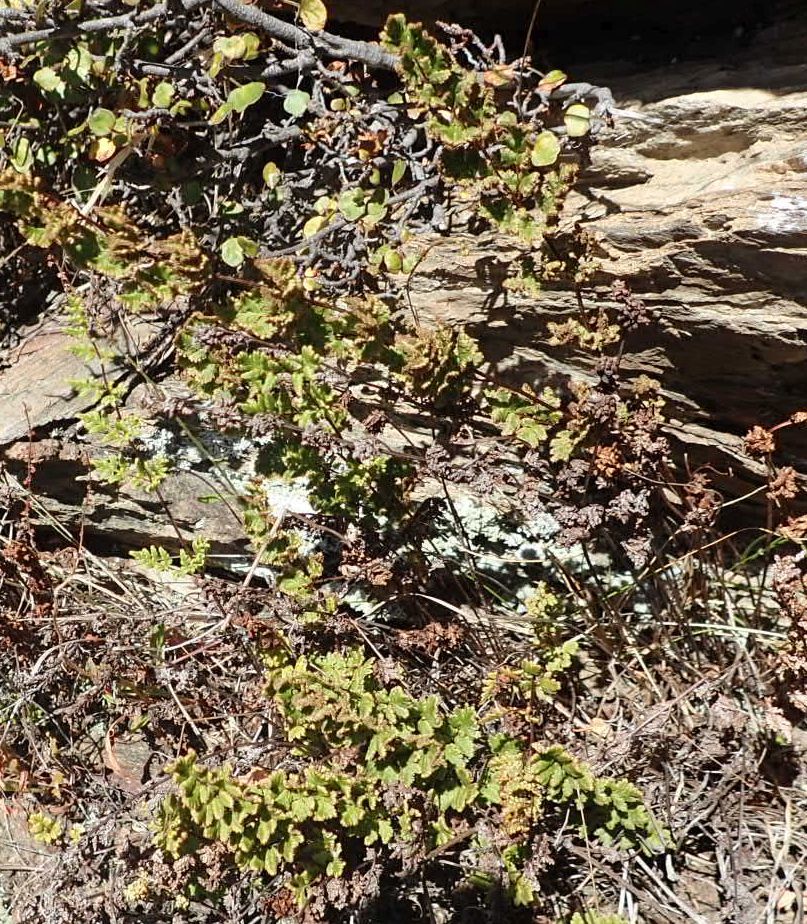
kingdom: Plantae
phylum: Tracheophyta
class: Polypodiopsida
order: Polypodiales
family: Pteridaceae
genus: Cheilanthes
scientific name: Cheilanthes sieberi
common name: Mulga fern
